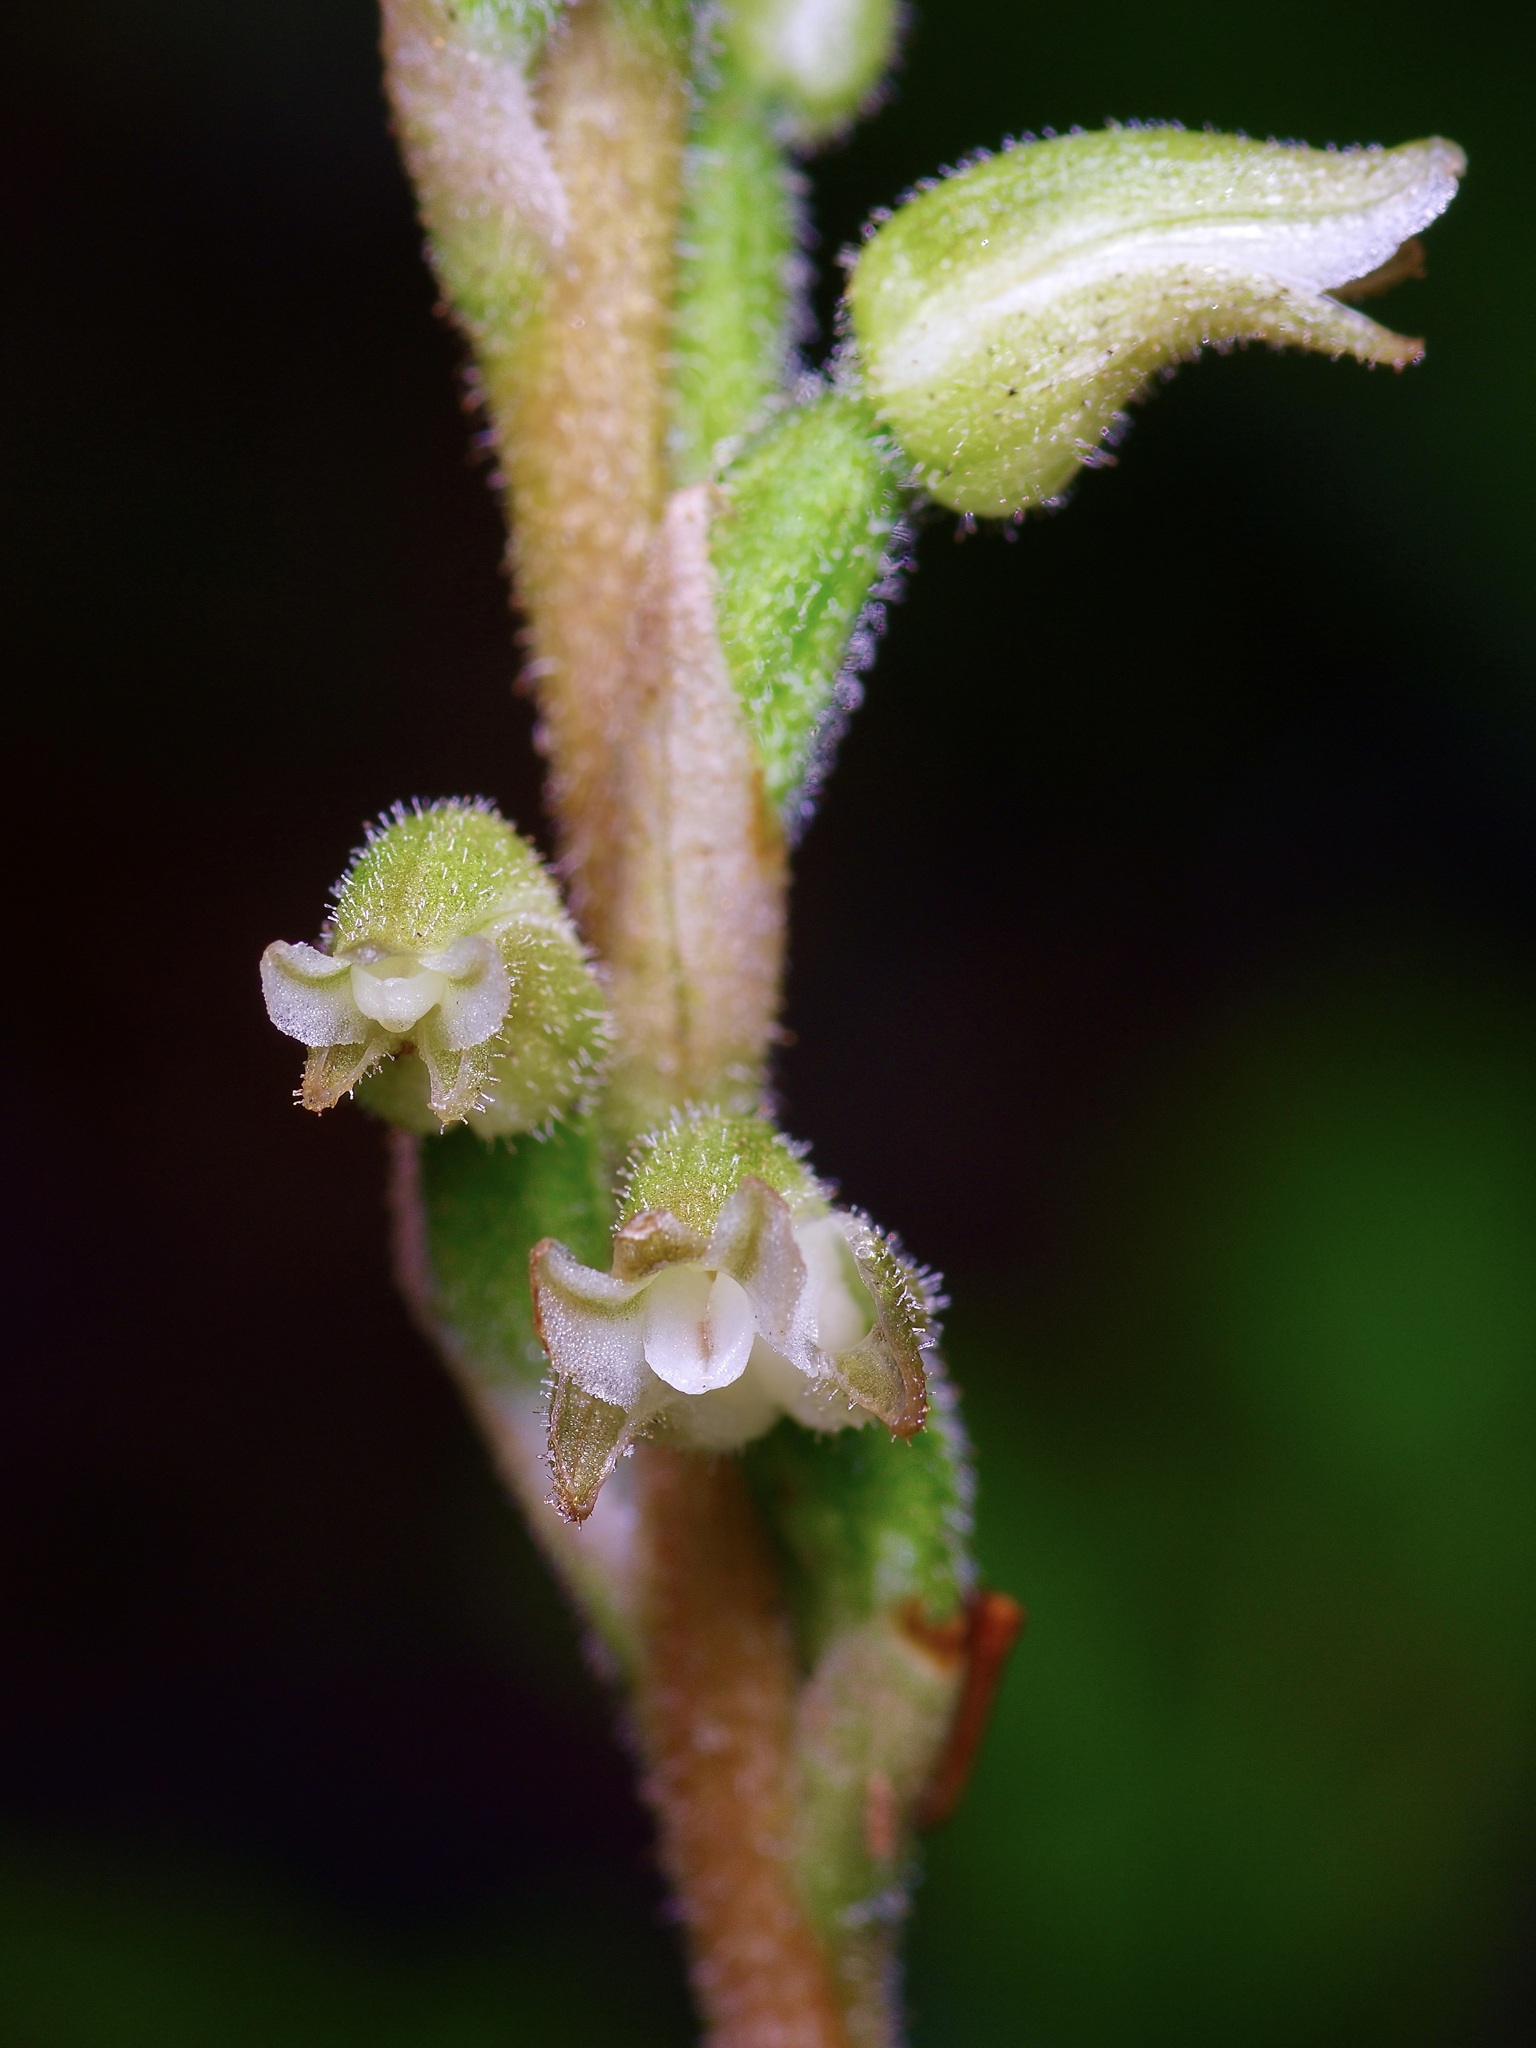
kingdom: Plantae
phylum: Tracheophyta
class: Liliopsida
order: Asparagales
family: Orchidaceae
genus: Goodyera
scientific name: Goodyera oblongifolia
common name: Giant rattlesnake-plantain
